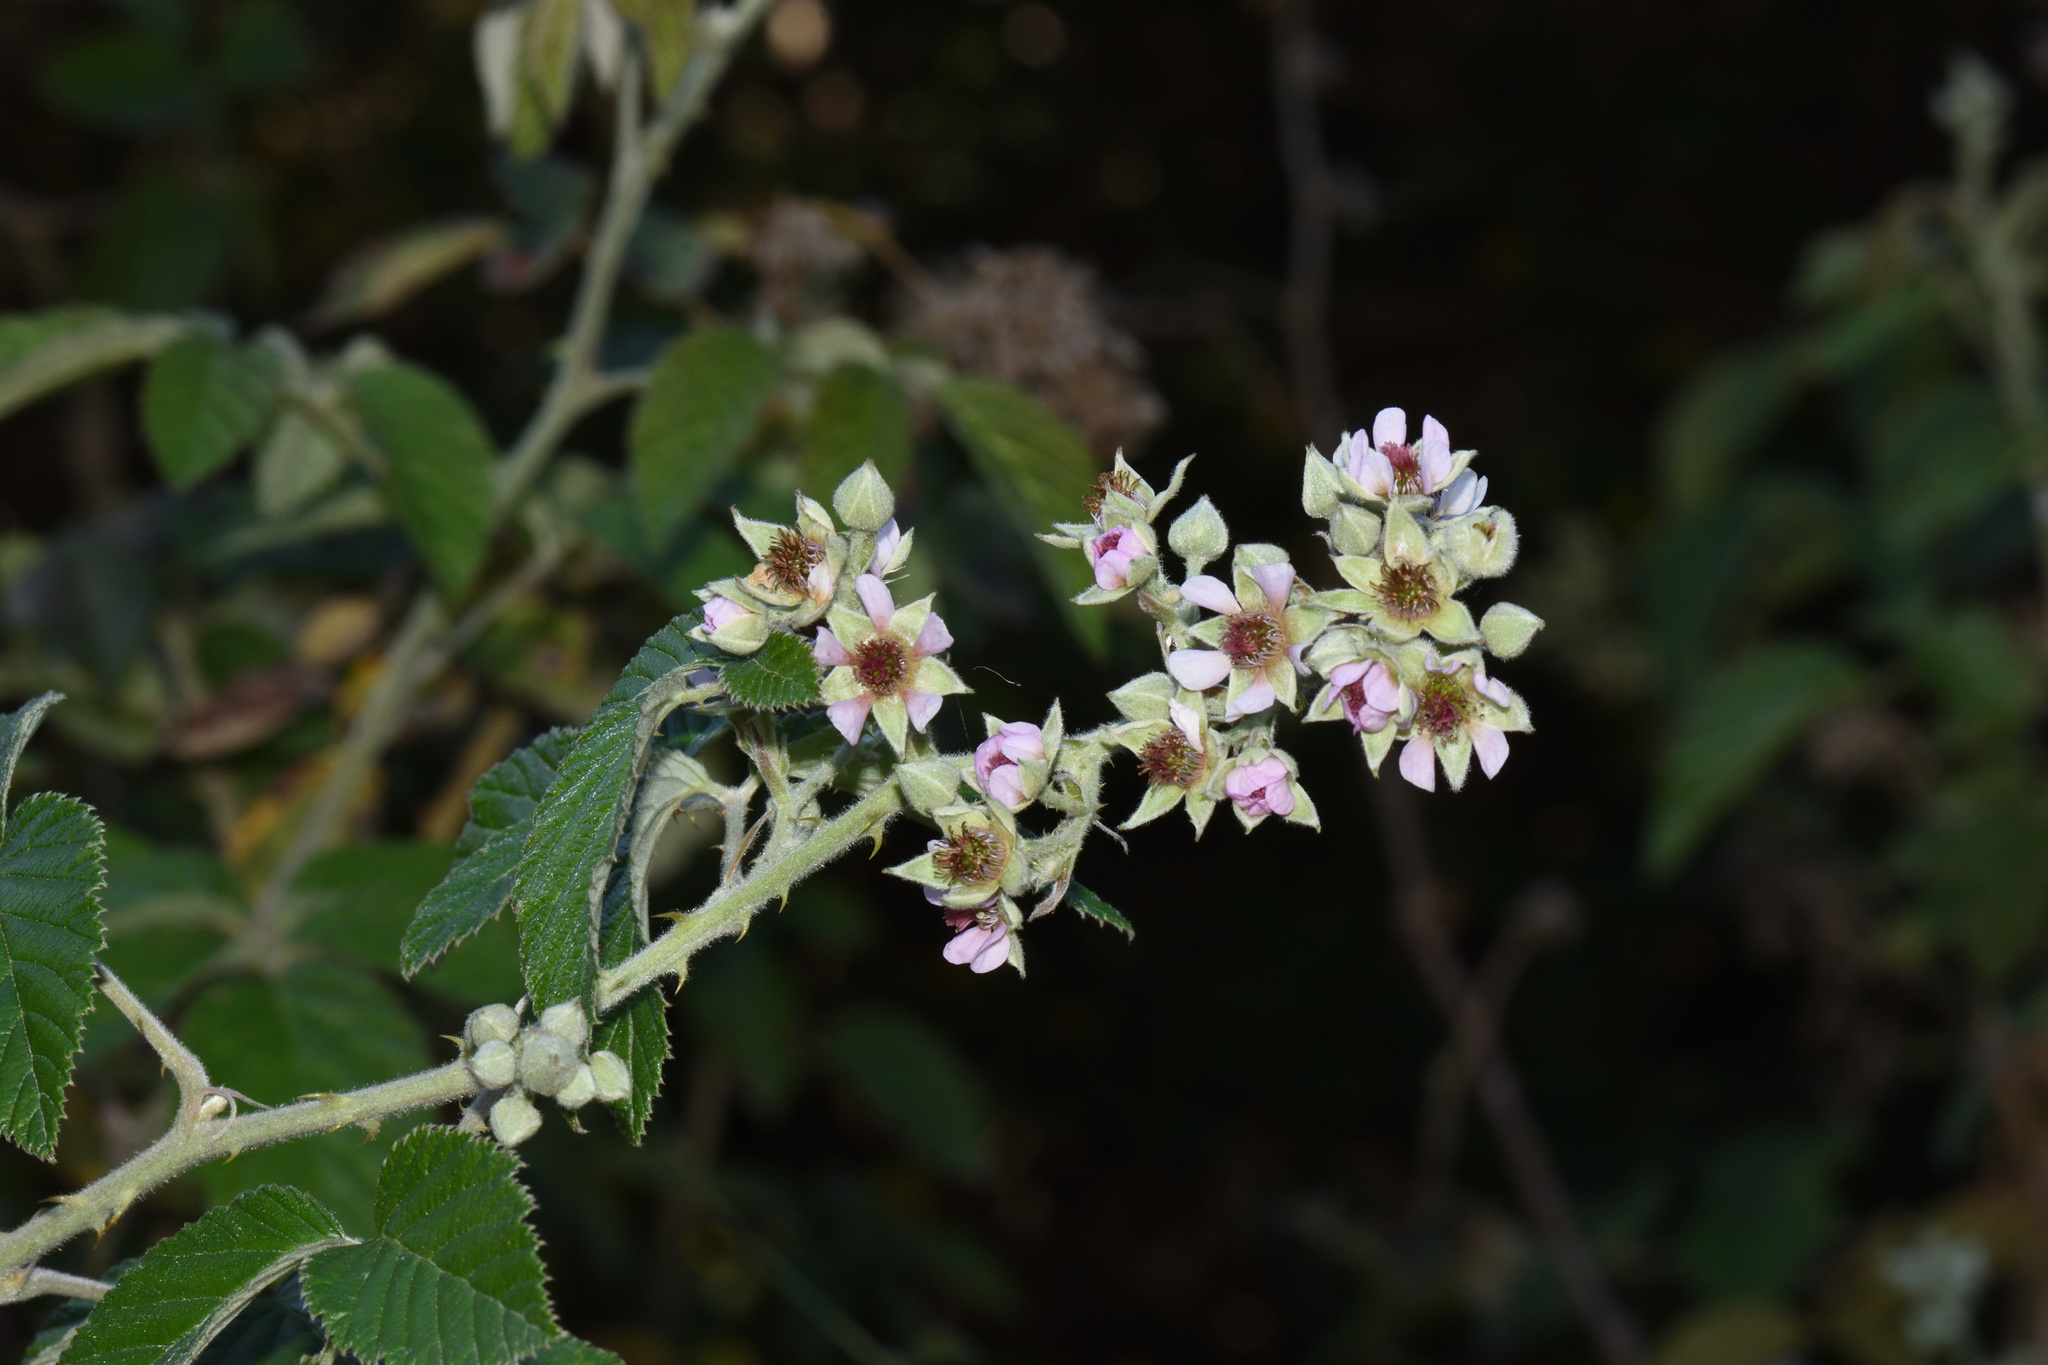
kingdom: Plantae
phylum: Tracheophyta
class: Magnoliopsida
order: Rosales
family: Rosaceae
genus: Rubus
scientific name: Rubus rigidus
